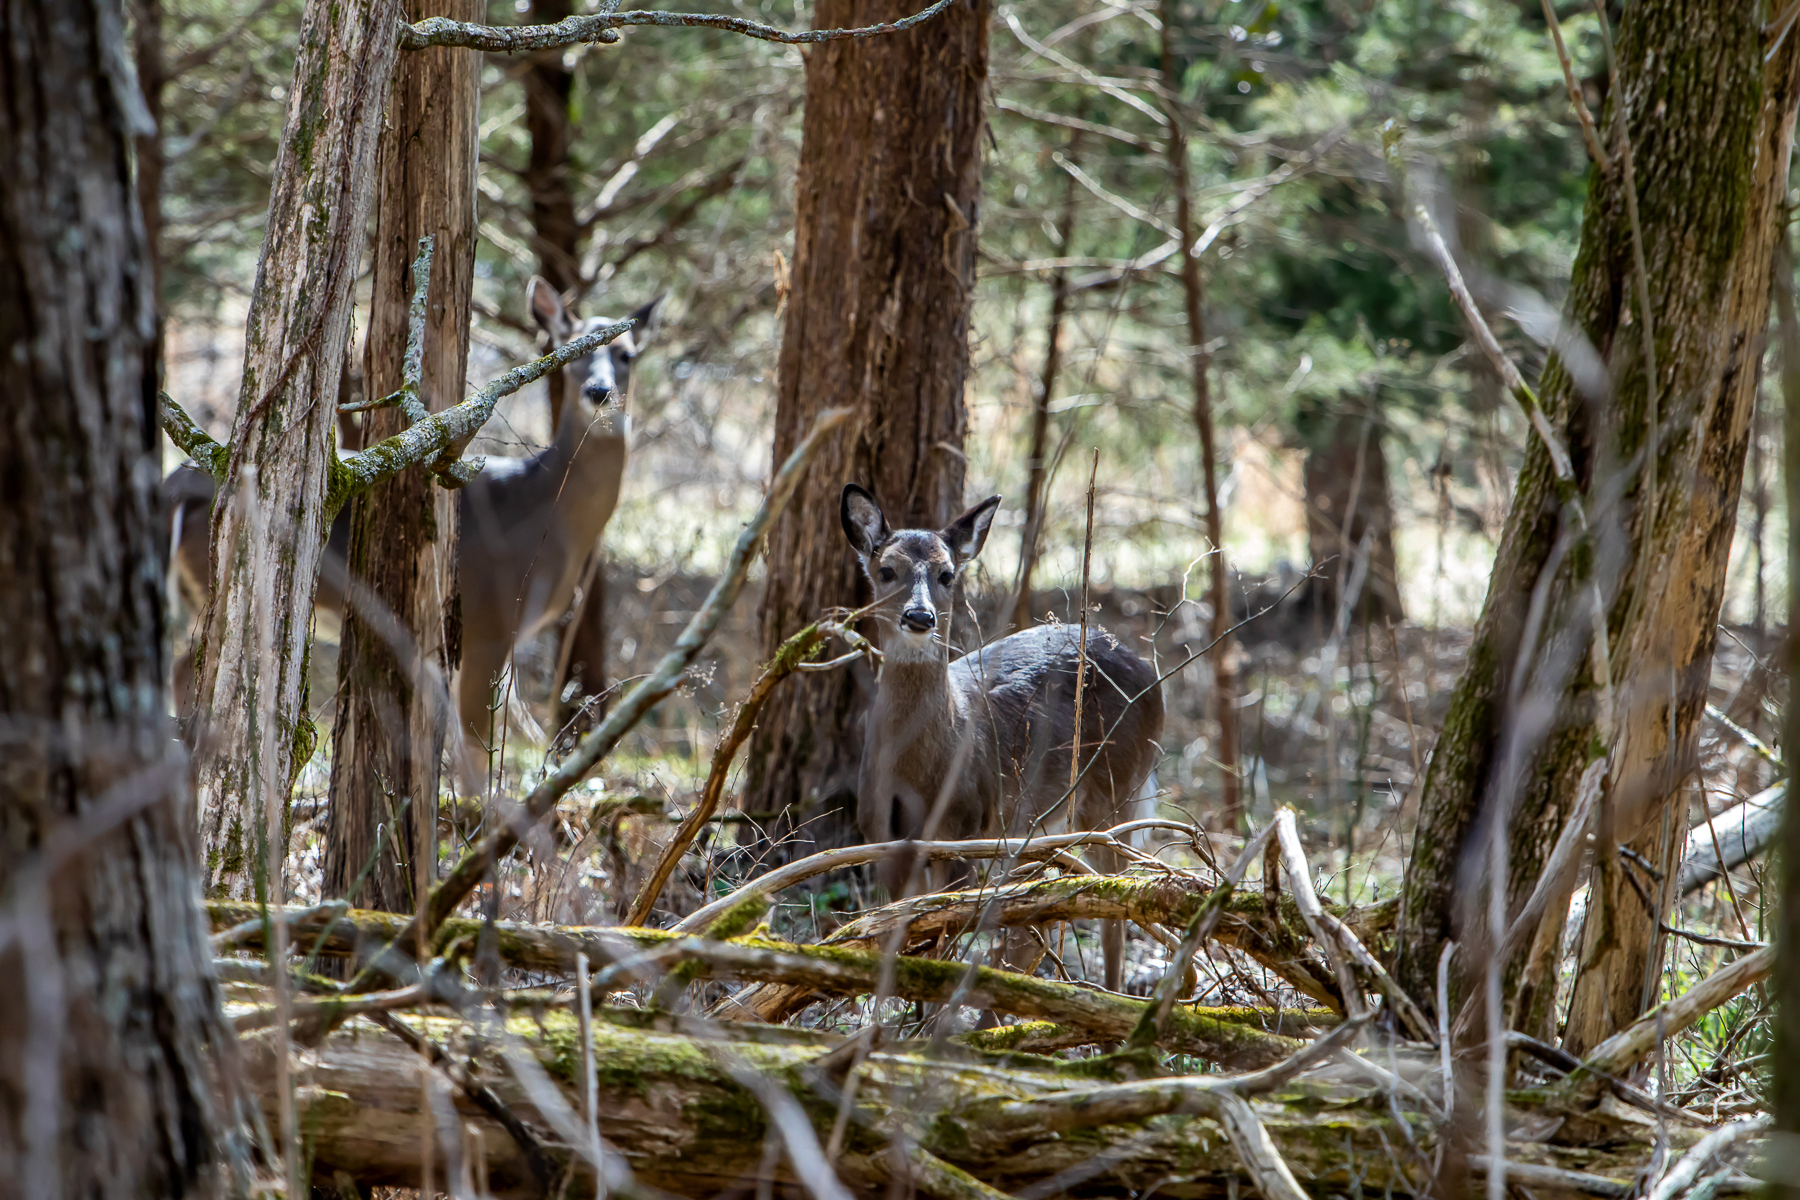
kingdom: Animalia
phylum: Chordata
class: Mammalia
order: Artiodactyla
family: Cervidae
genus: Odocoileus
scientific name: Odocoileus virginianus
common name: White-tailed deer
